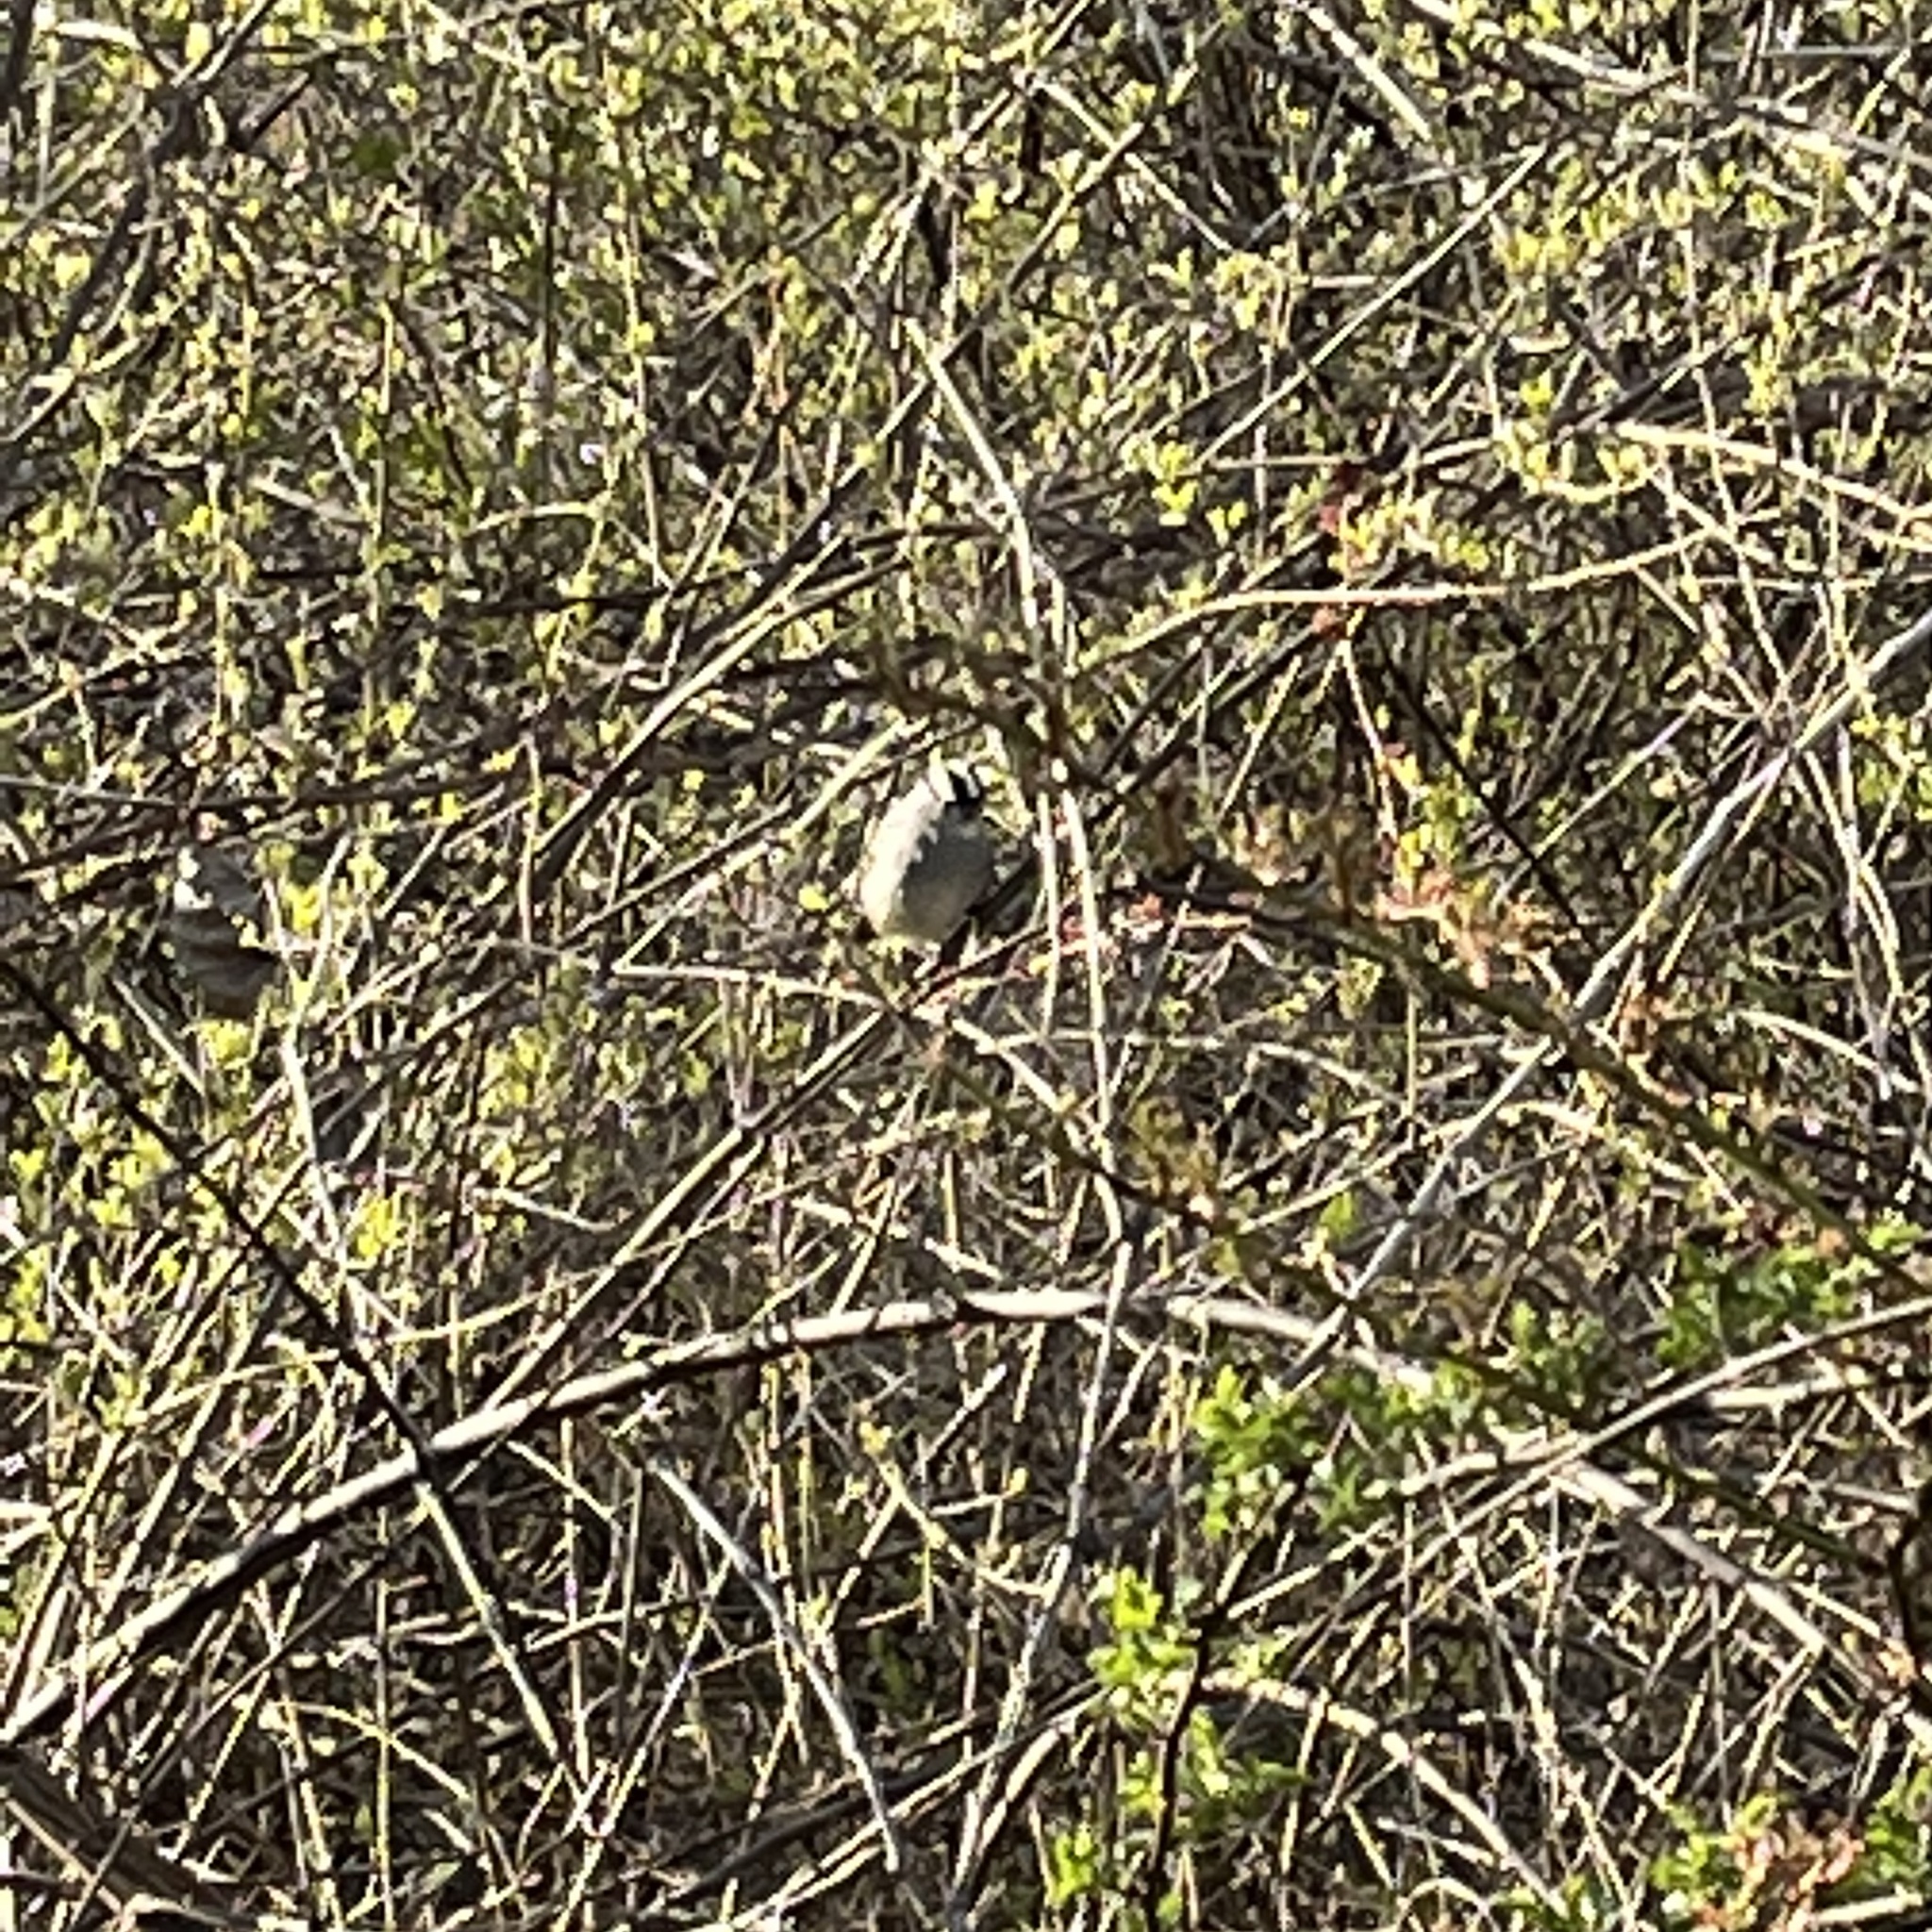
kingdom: Animalia
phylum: Chordata
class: Aves
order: Passeriformes
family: Passerellidae
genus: Zonotrichia
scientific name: Zonotrichia leucophrys
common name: White-crowned sparrow
